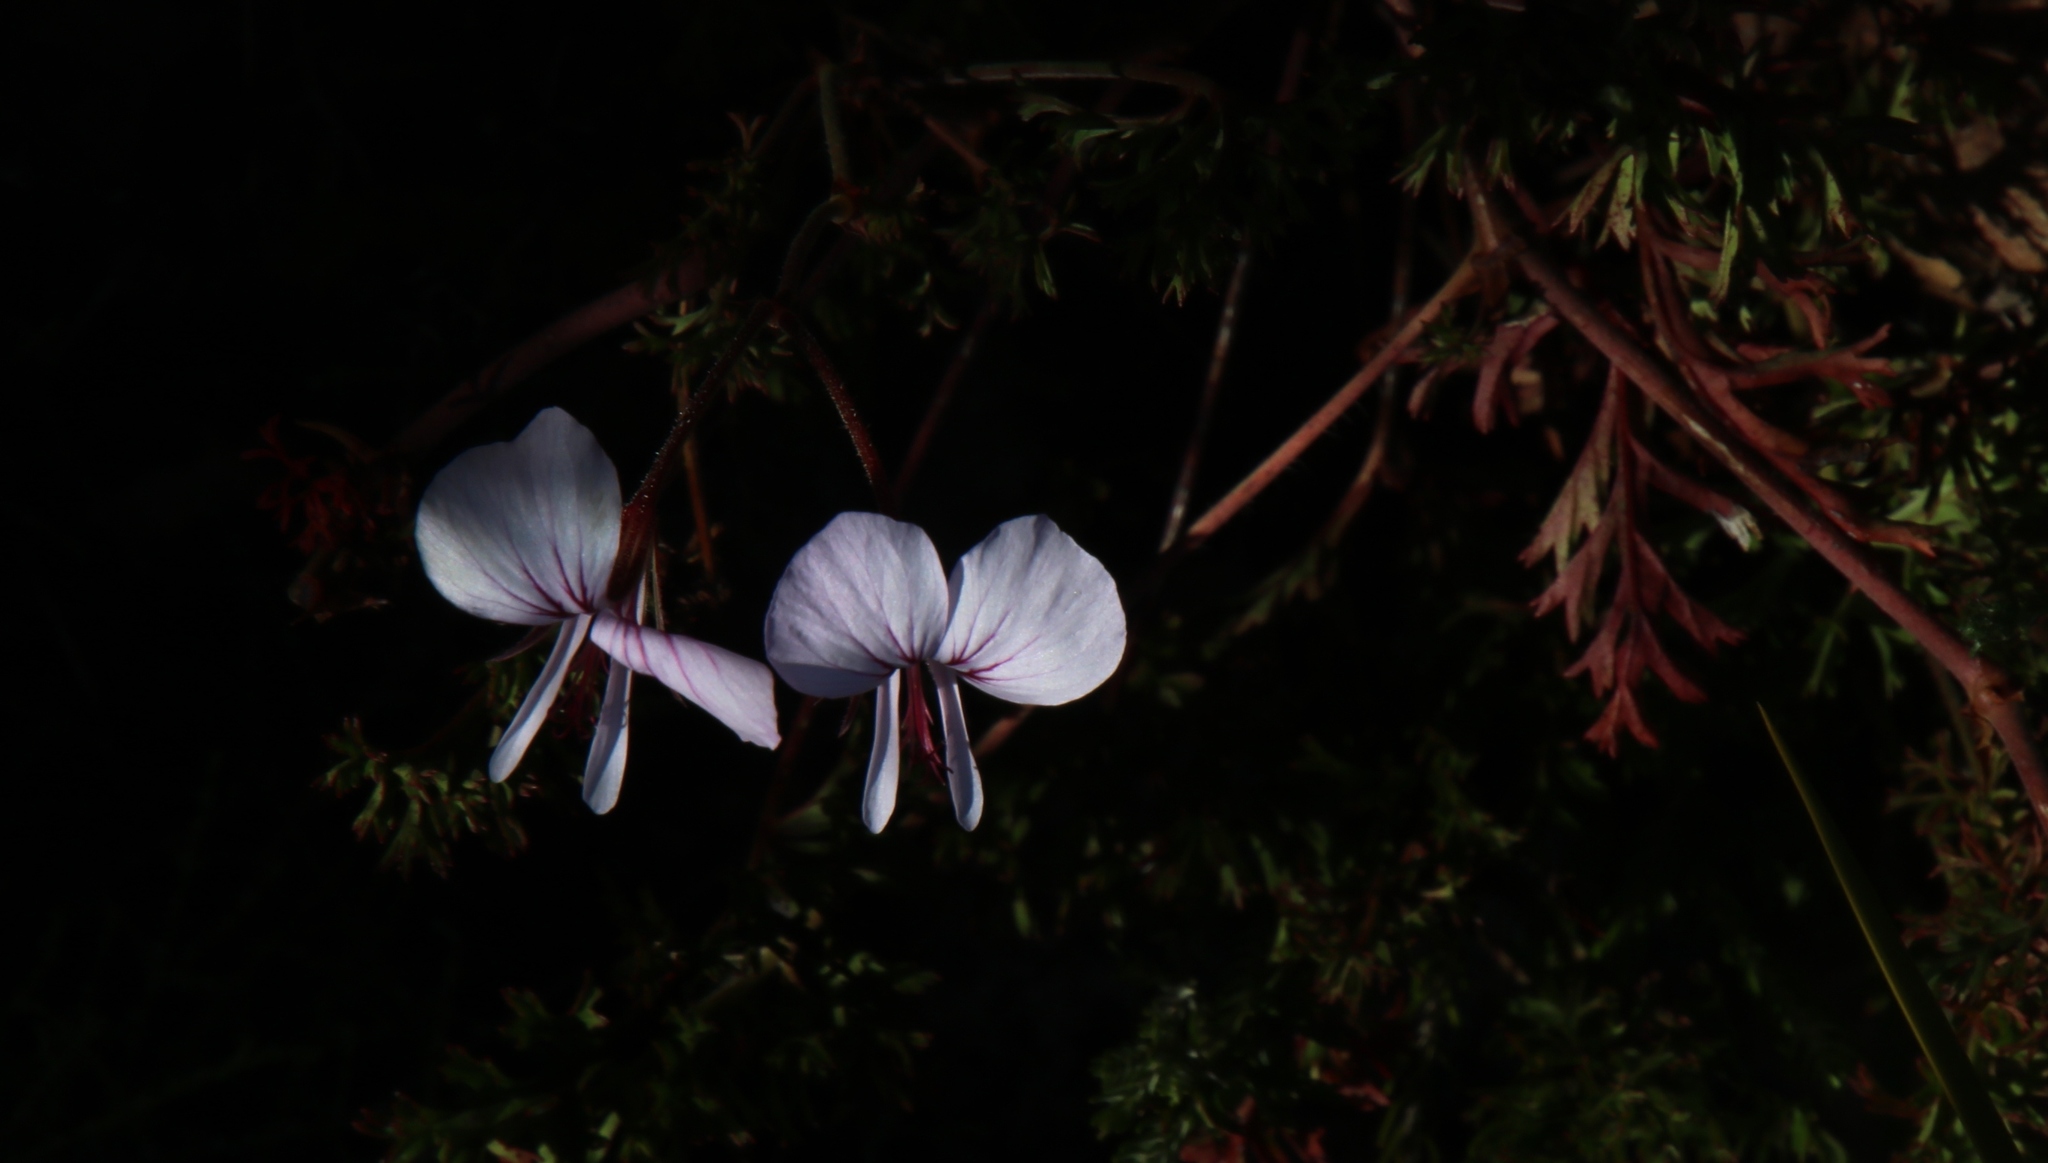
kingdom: Plantae
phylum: Tracheophyta
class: Magnoliopsida
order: Geraniales
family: Geraniaceae
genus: Pelargonium
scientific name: Pelargonium myrrhifolium
